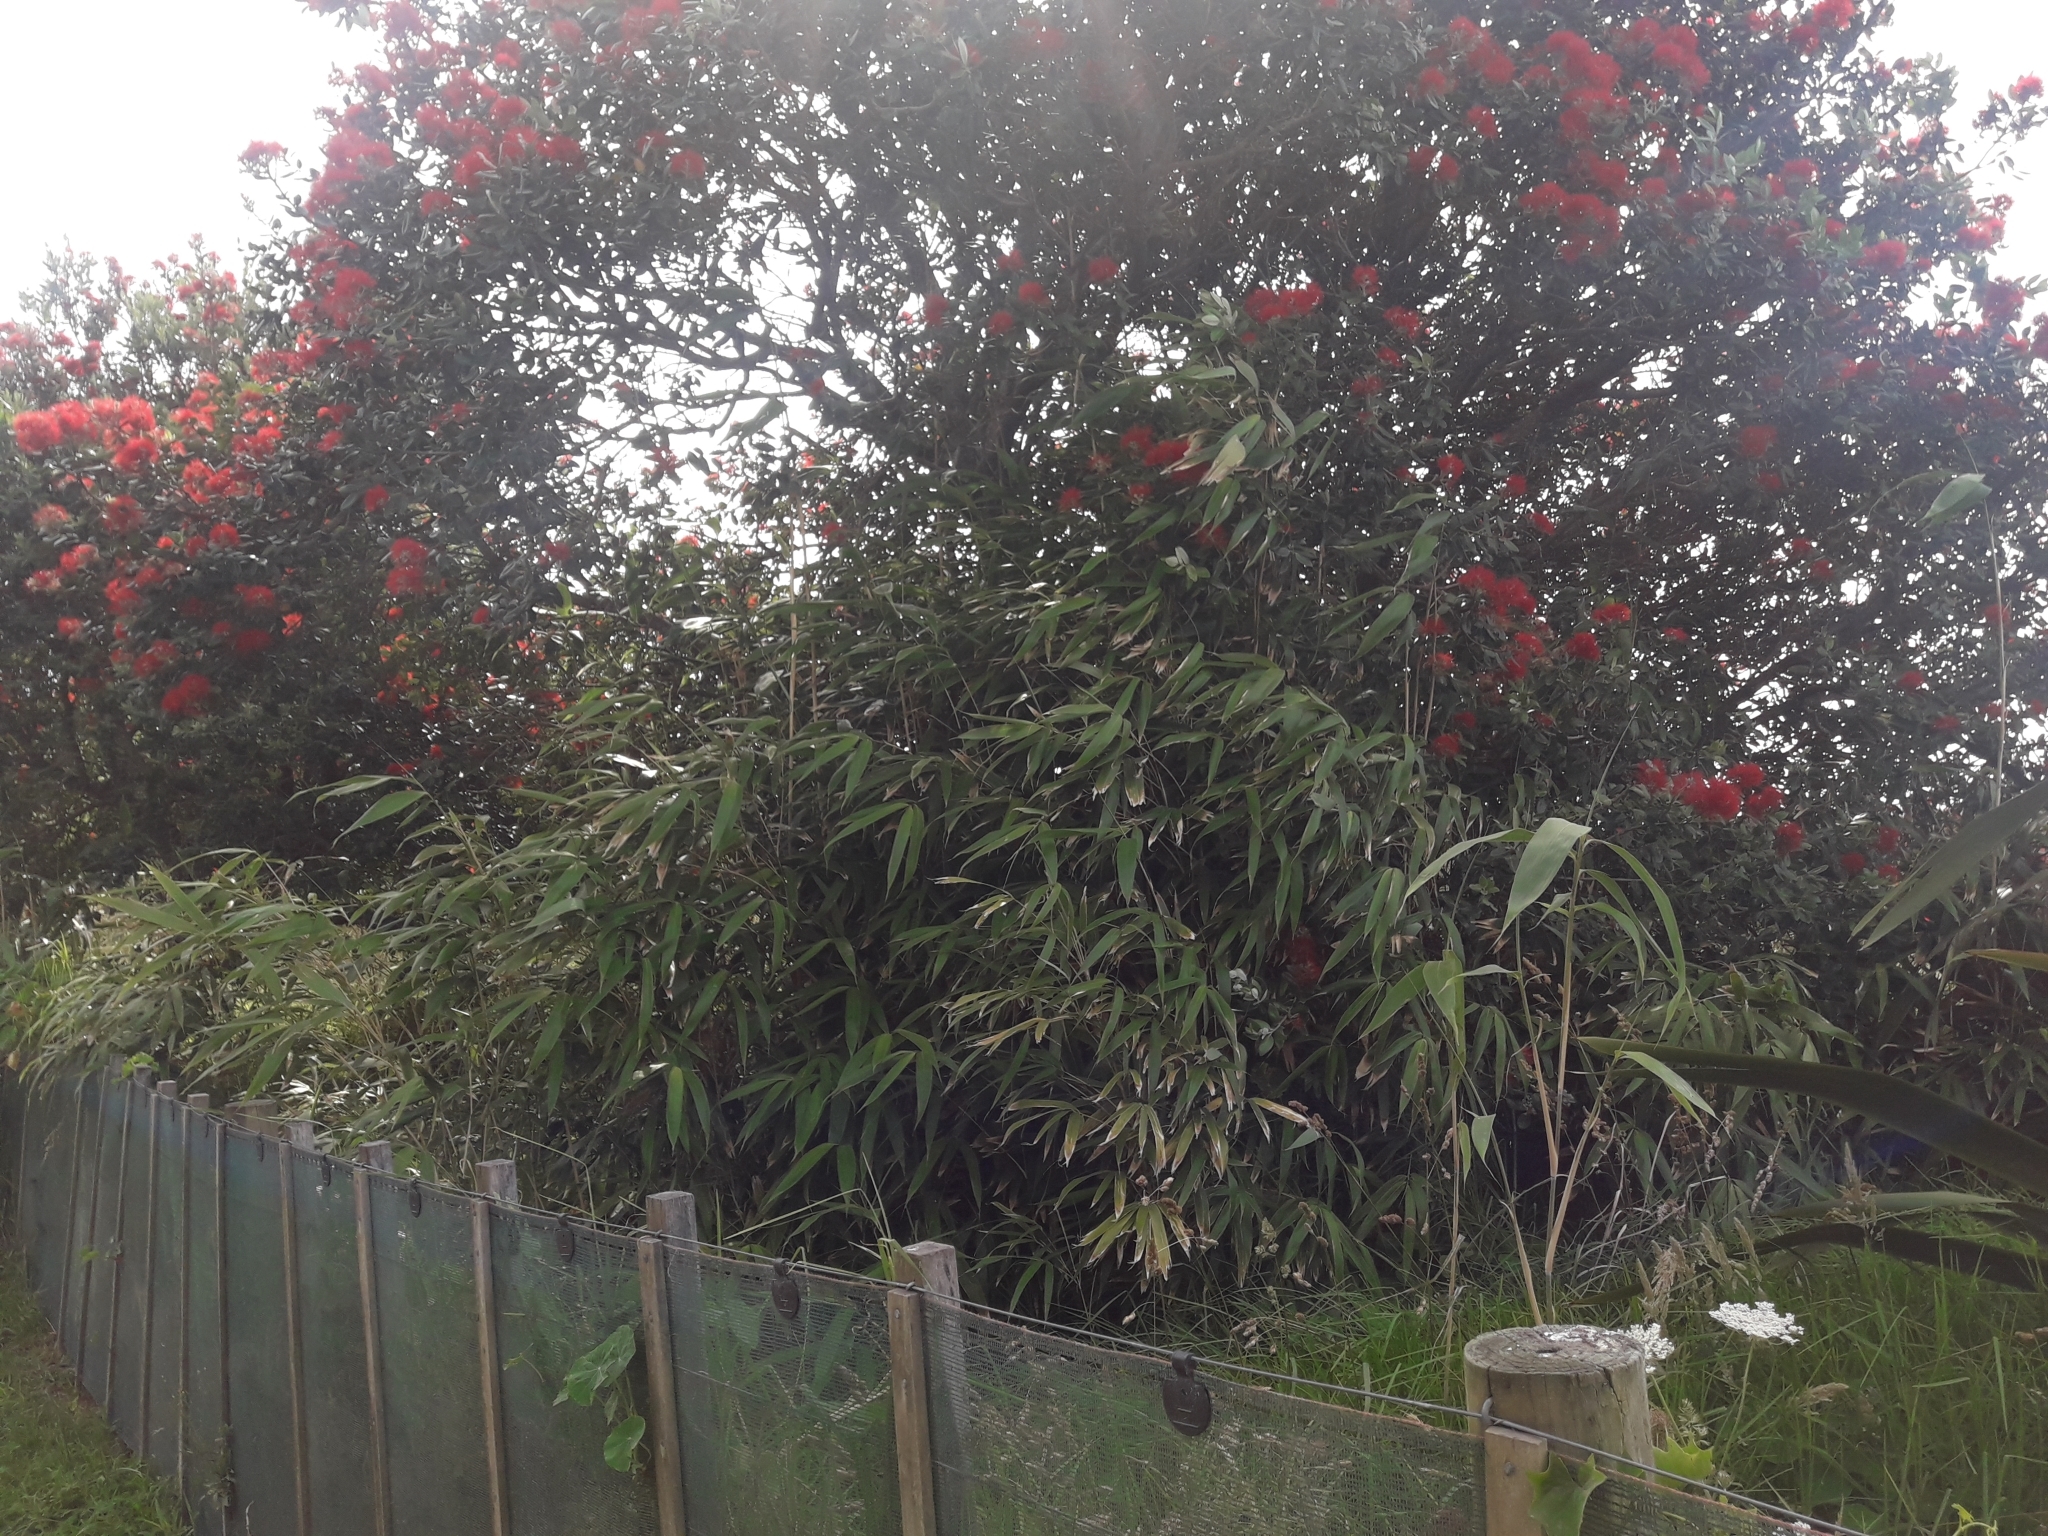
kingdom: Plantae
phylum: Tracheophyta
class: Liliopsida
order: Poales
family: Poaceae
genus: Pseudosasa
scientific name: Pseudosasa japonica
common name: Arrow bamboo
